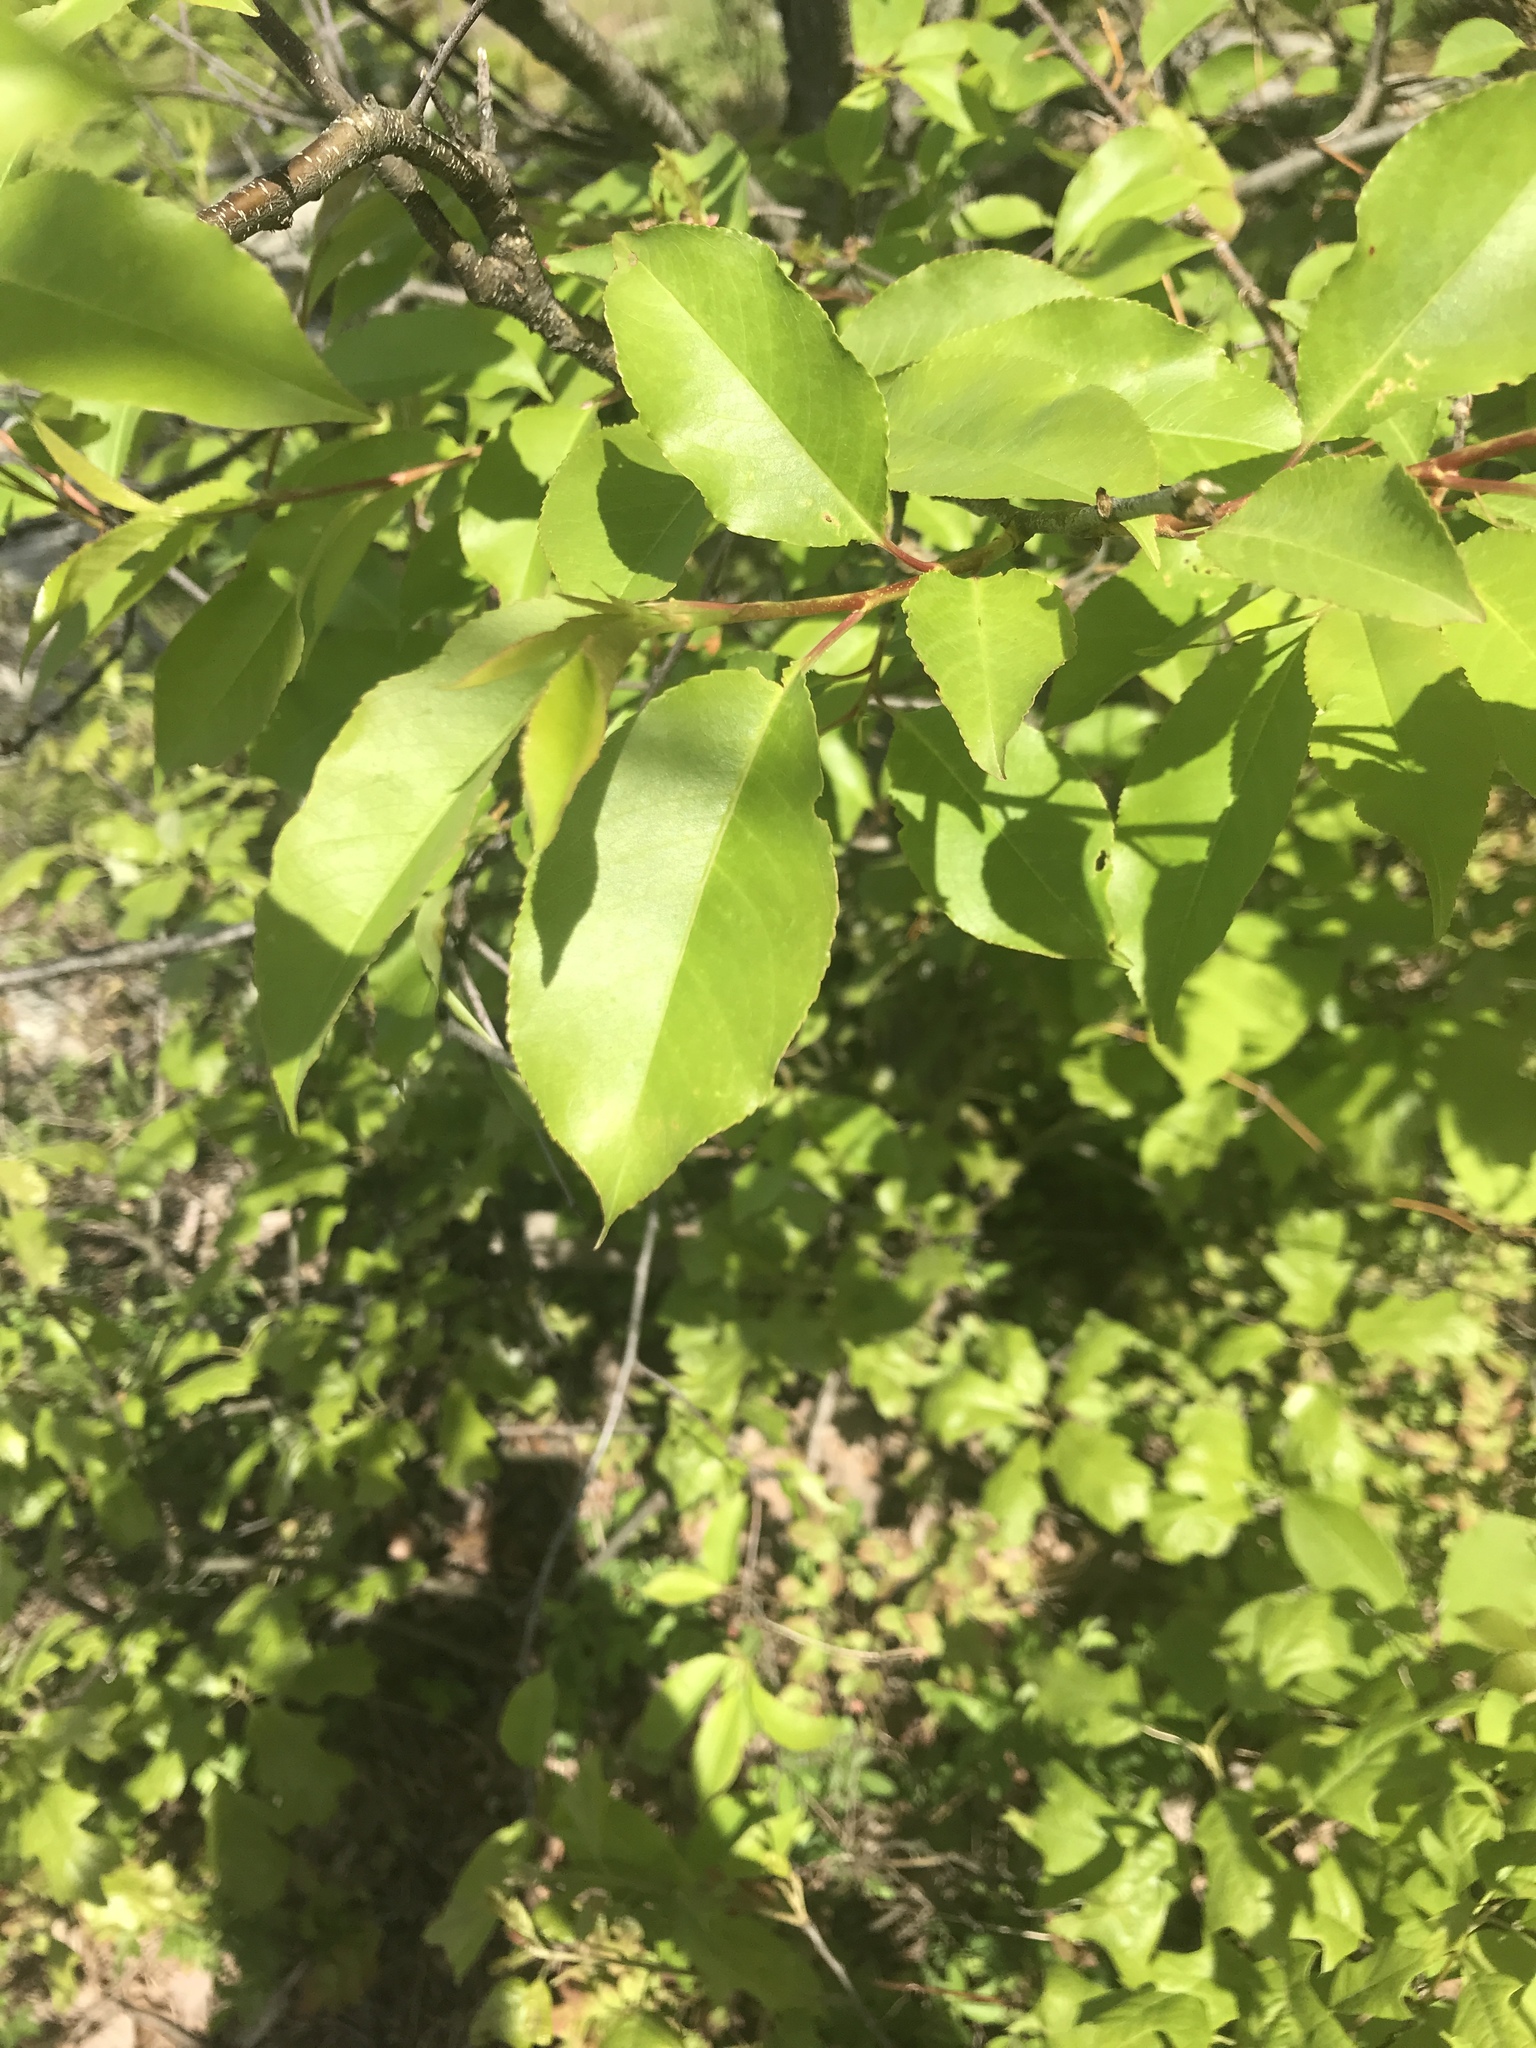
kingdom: Plantae
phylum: Tracheophyta
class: Magnoliopsida
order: Rosales
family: Rosaceae
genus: Prunus
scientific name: Prunus serotina
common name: Black cherry
